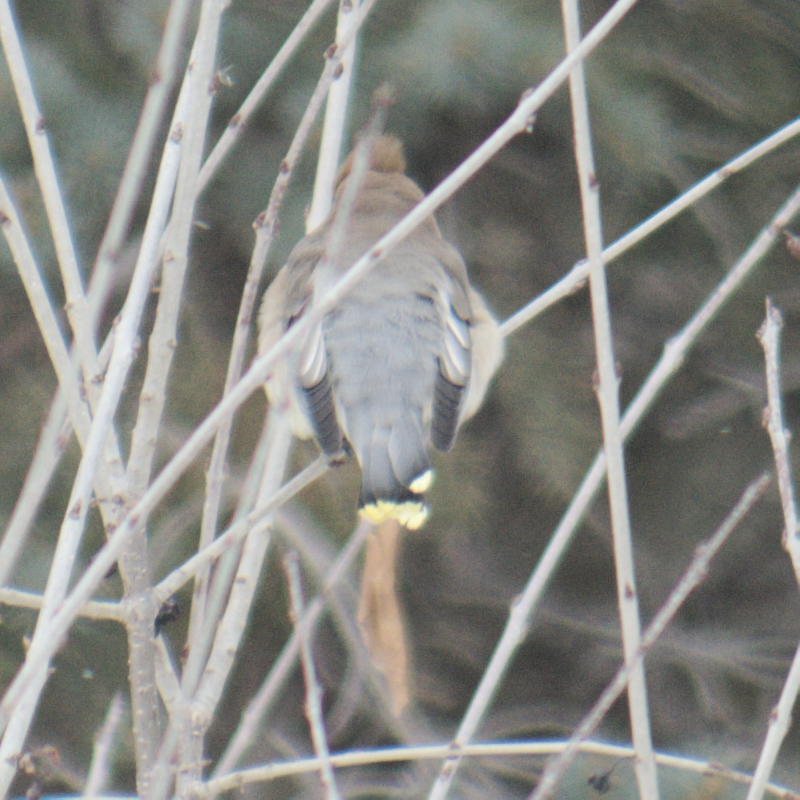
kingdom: Animalia
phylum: Chordata
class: Aves
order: Passeriformes
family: Bombycillidae
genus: Bombycilla
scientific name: Bombycilla cedrorum
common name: Cedar waxwing
